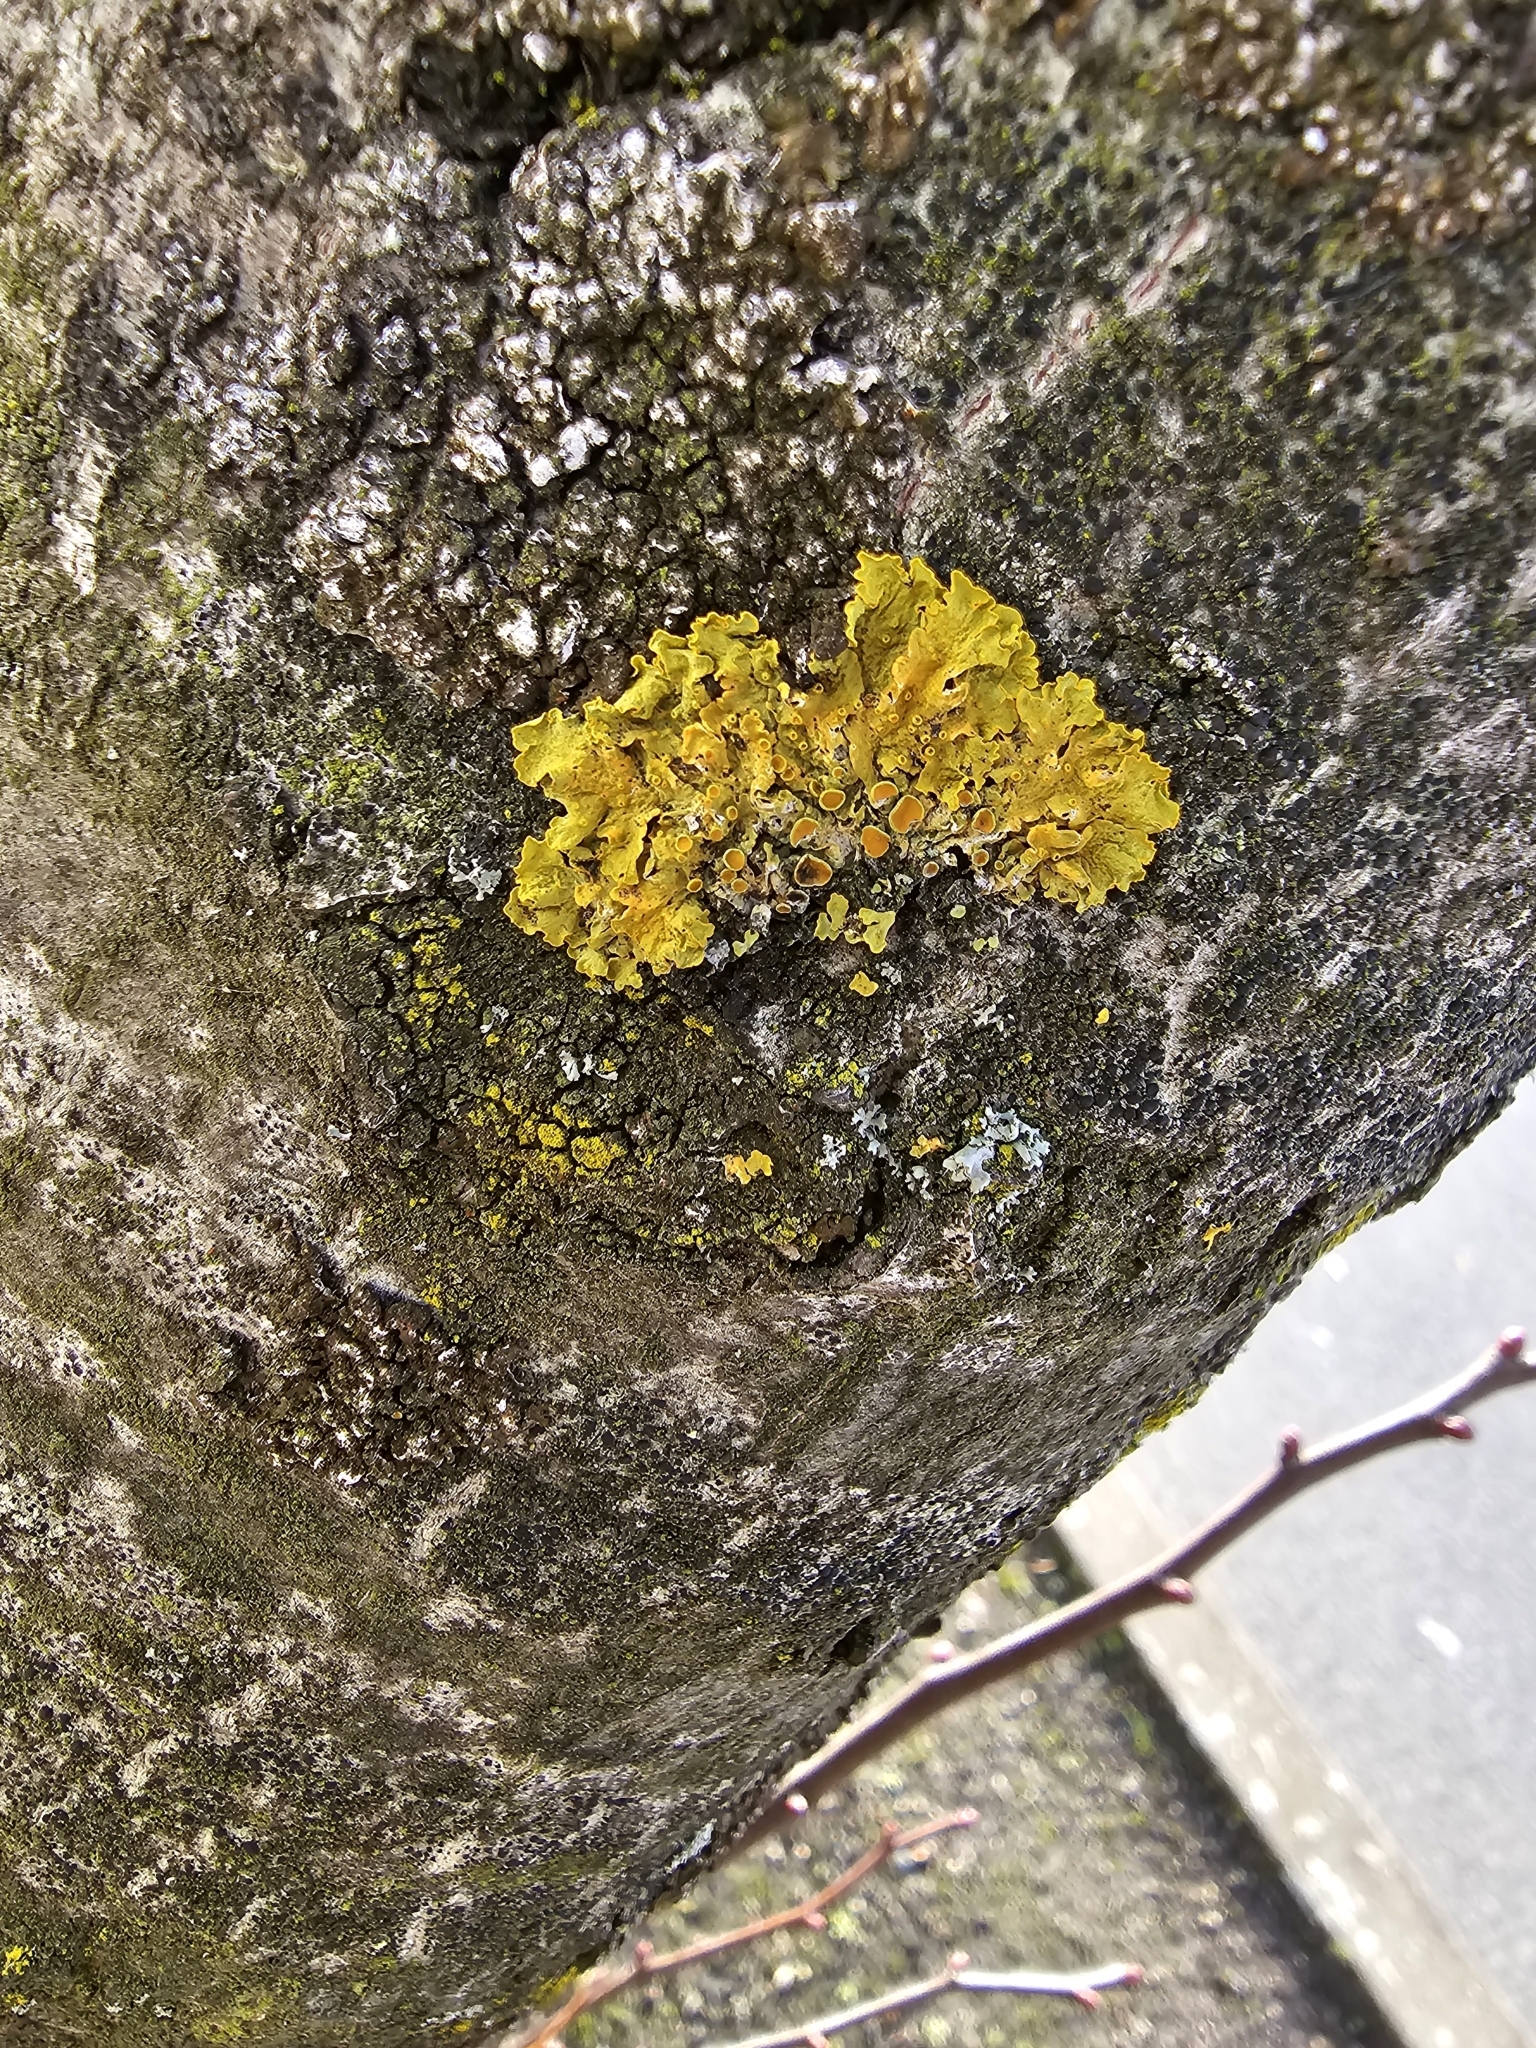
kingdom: Fungi
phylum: Ascomycota
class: Lecanoromycetes
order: Teloschistales
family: Teloschistaceae
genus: Xanthoria
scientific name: Xanthoria parietina
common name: Common orange lichen
